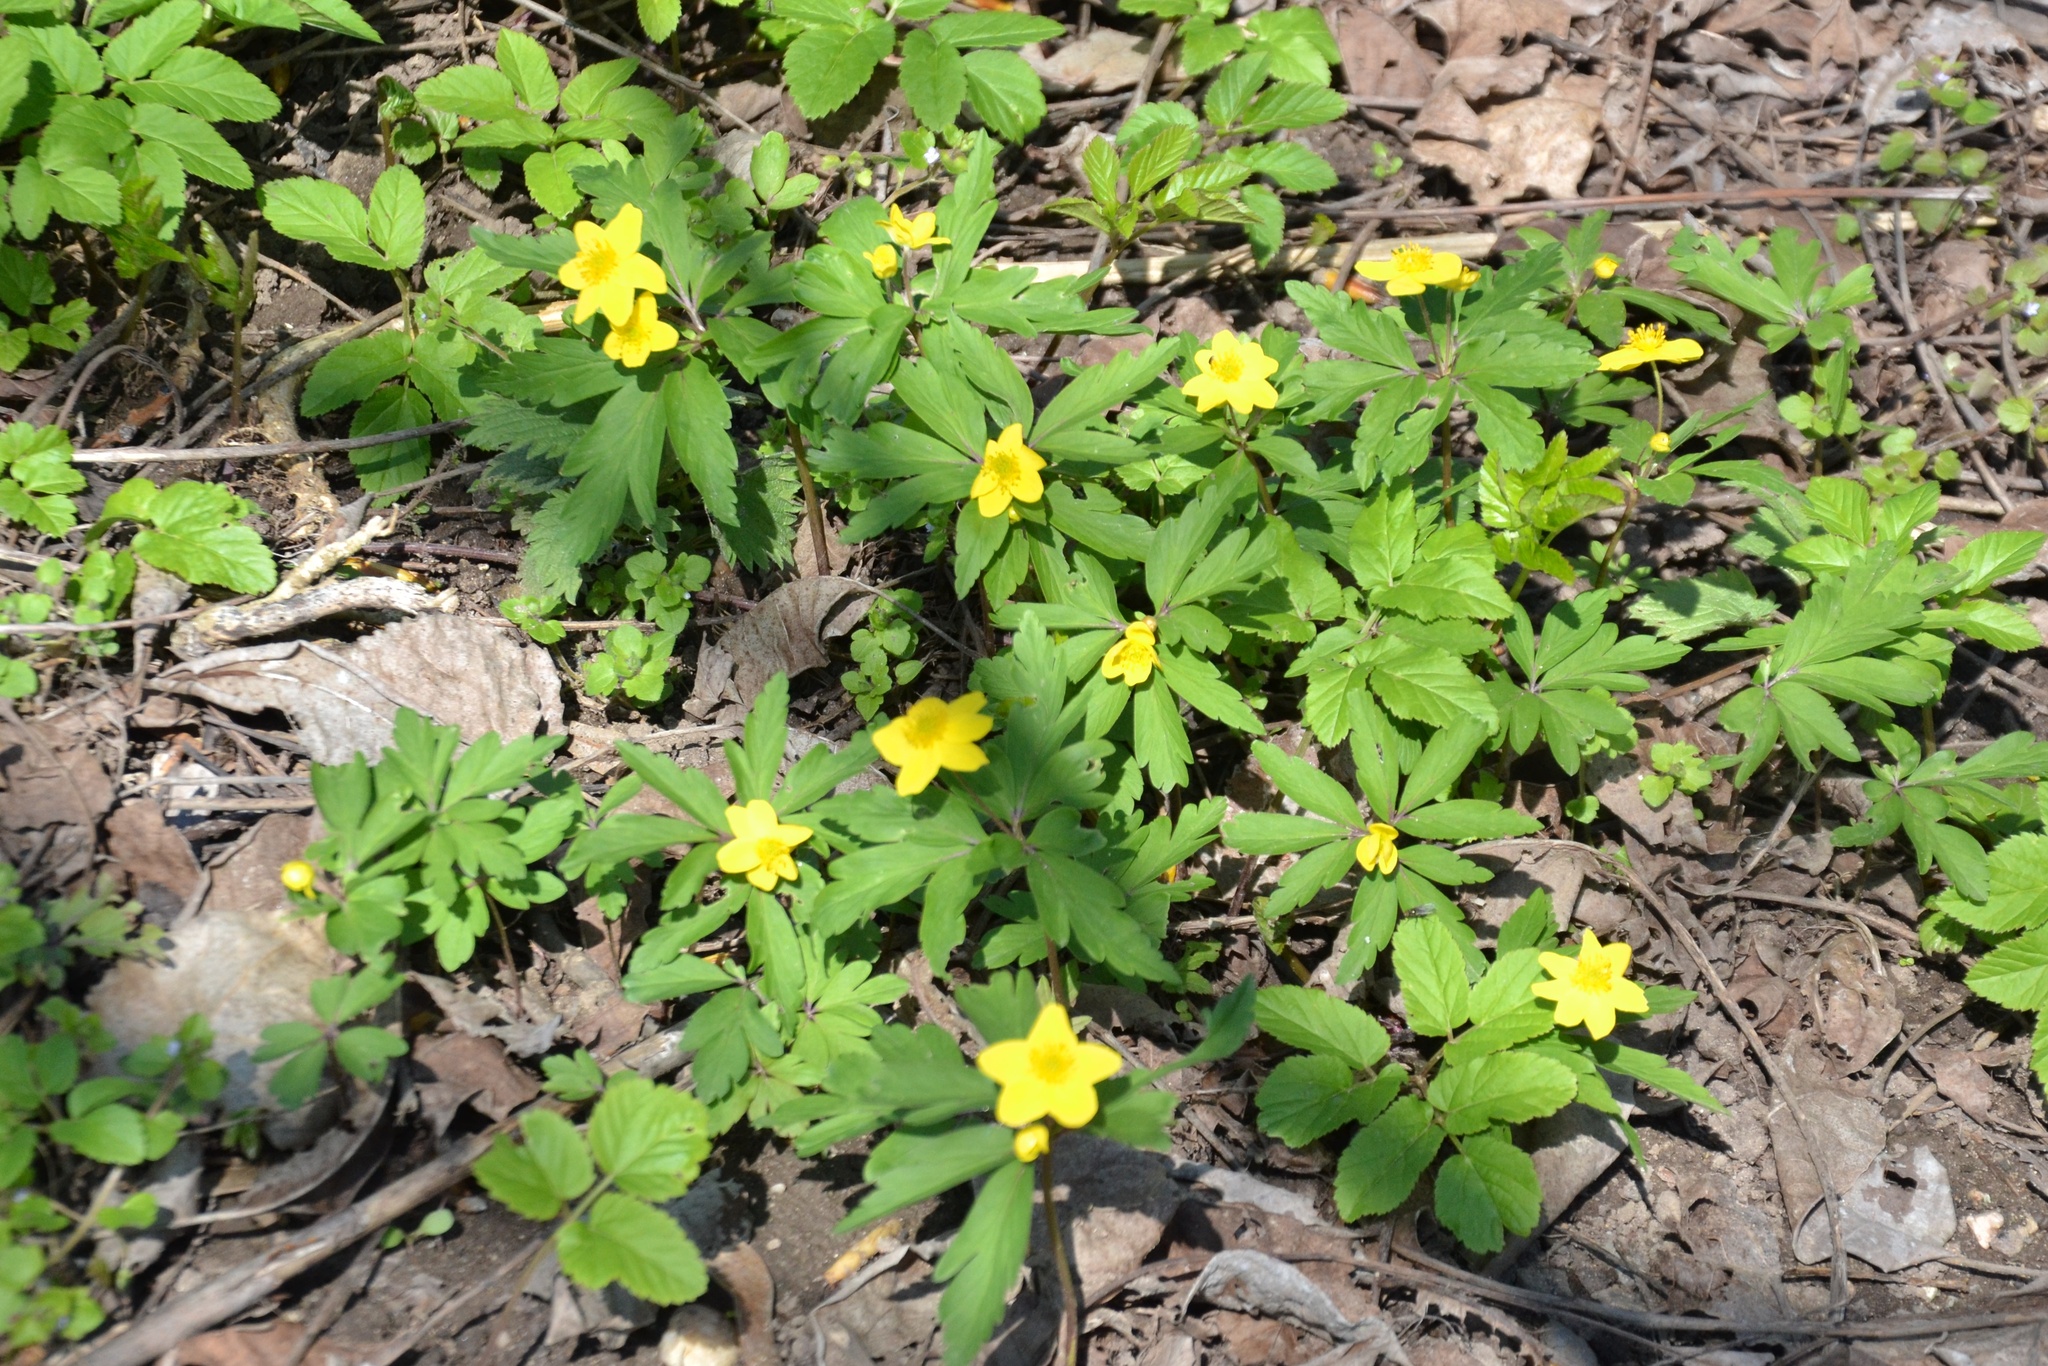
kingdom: Plantae
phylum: Tracheophyta
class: Magnoliopsida
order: Ranunculales
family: Ranunculaceae
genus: Anemone
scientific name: Anemone ranunculoides
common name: Yellow anemone
